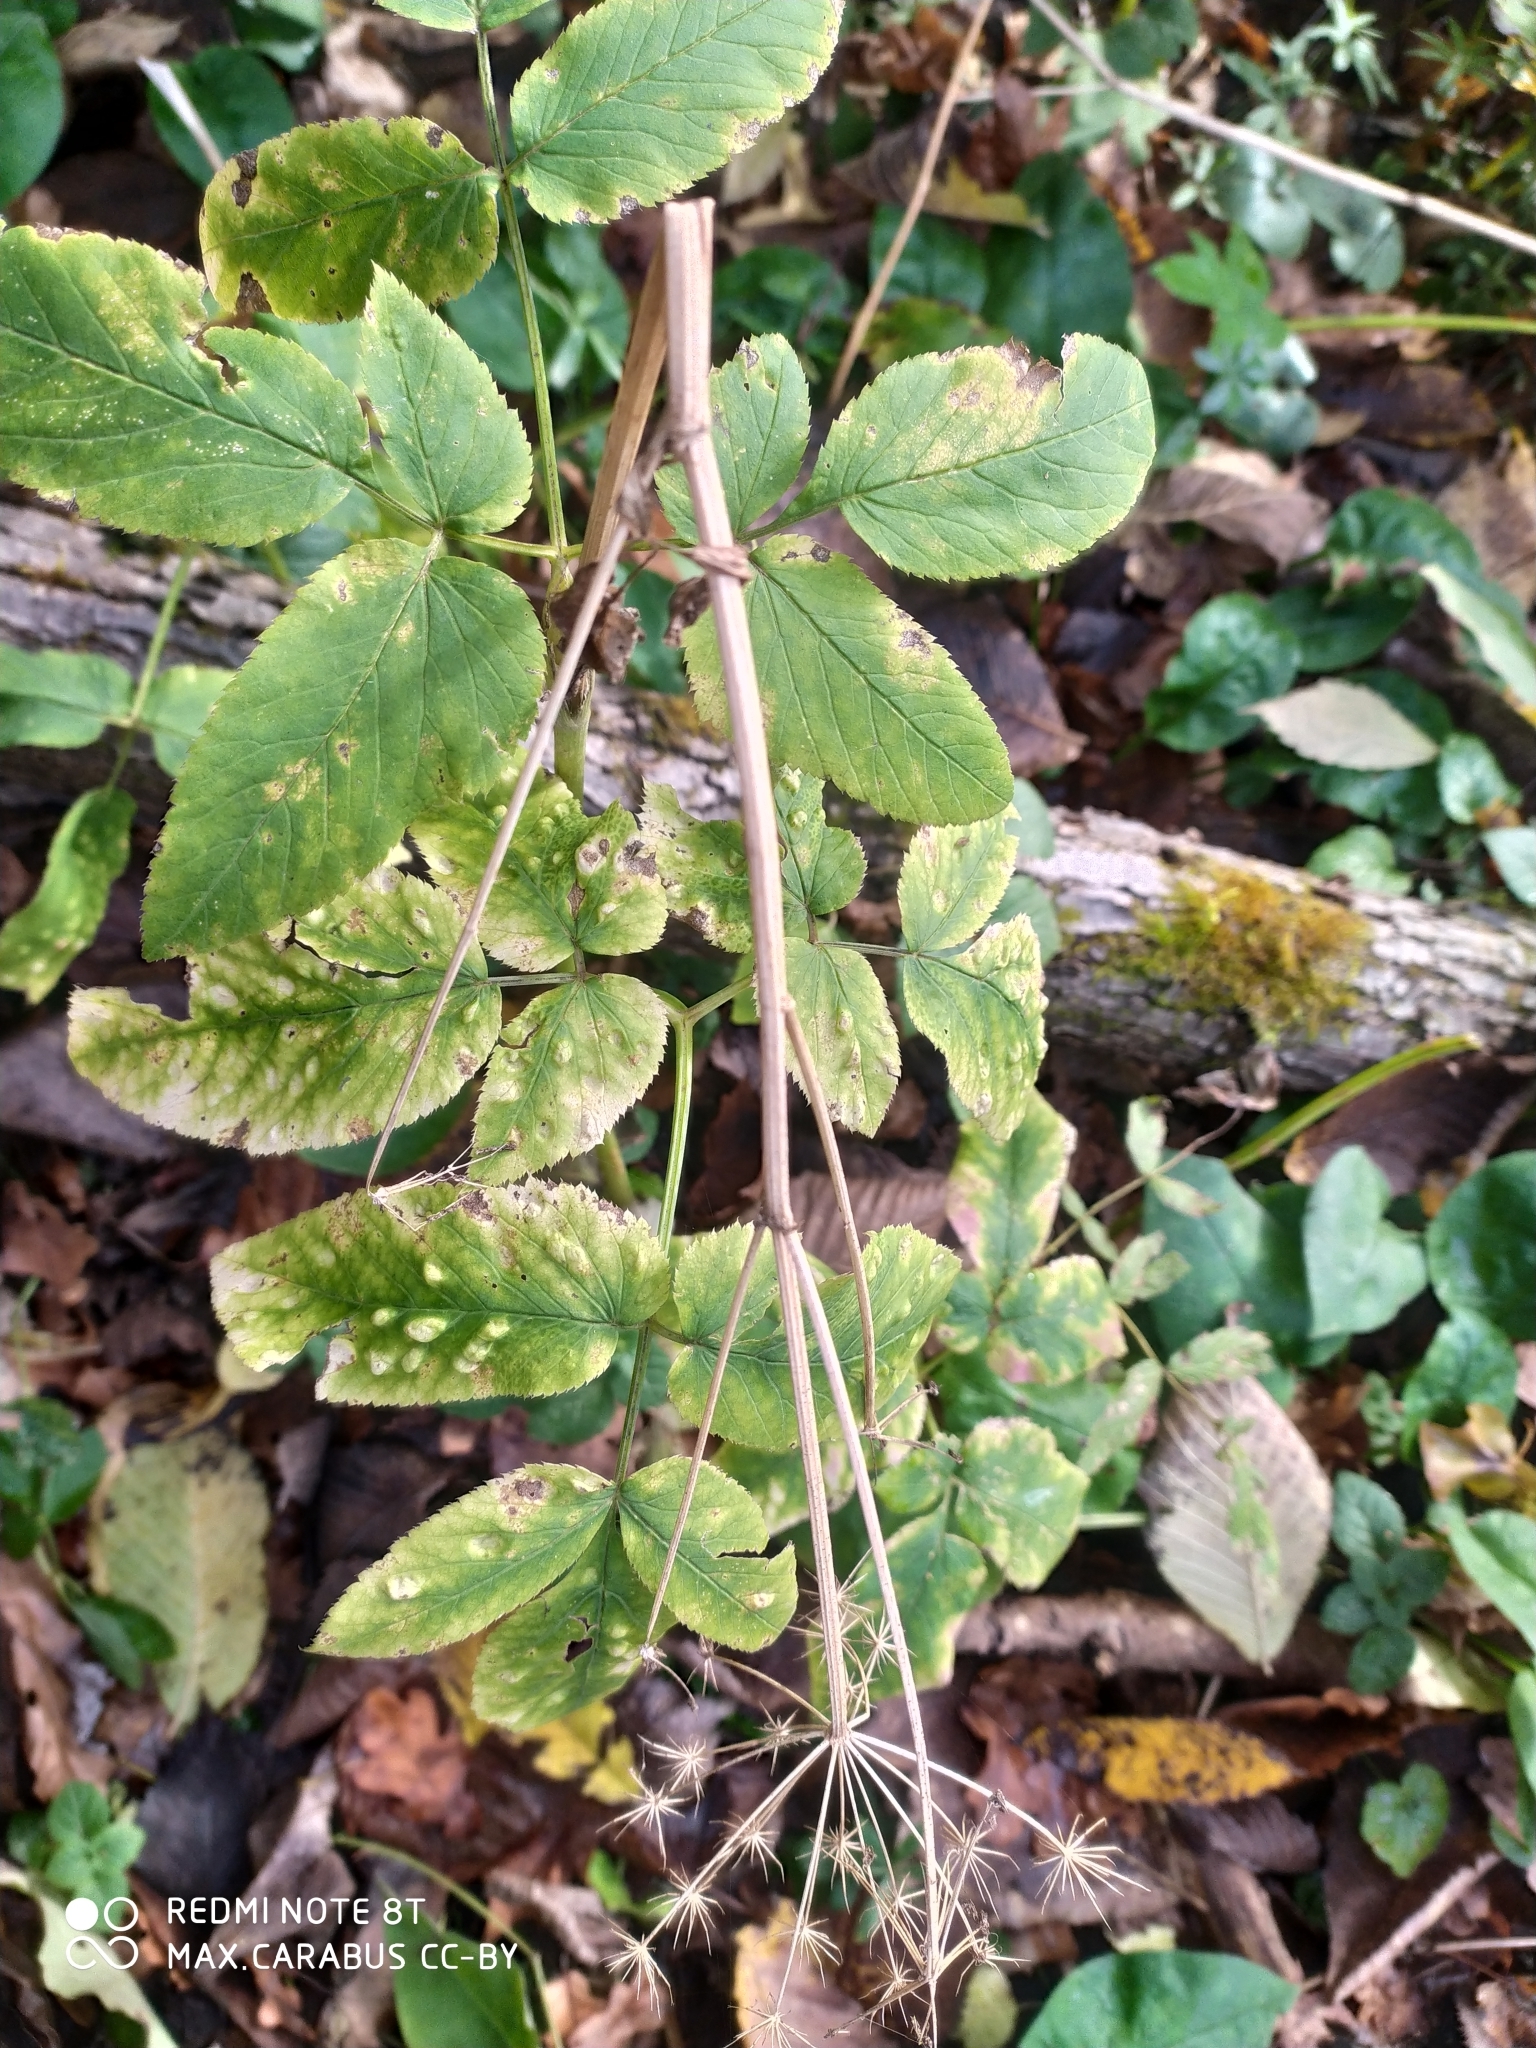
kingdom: Plantae
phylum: Tracheophyta
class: Magnoliopsida
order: Apiales
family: Apiaceae
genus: Aegopodium
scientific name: Aegopodium podagraria
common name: Ground-elder
